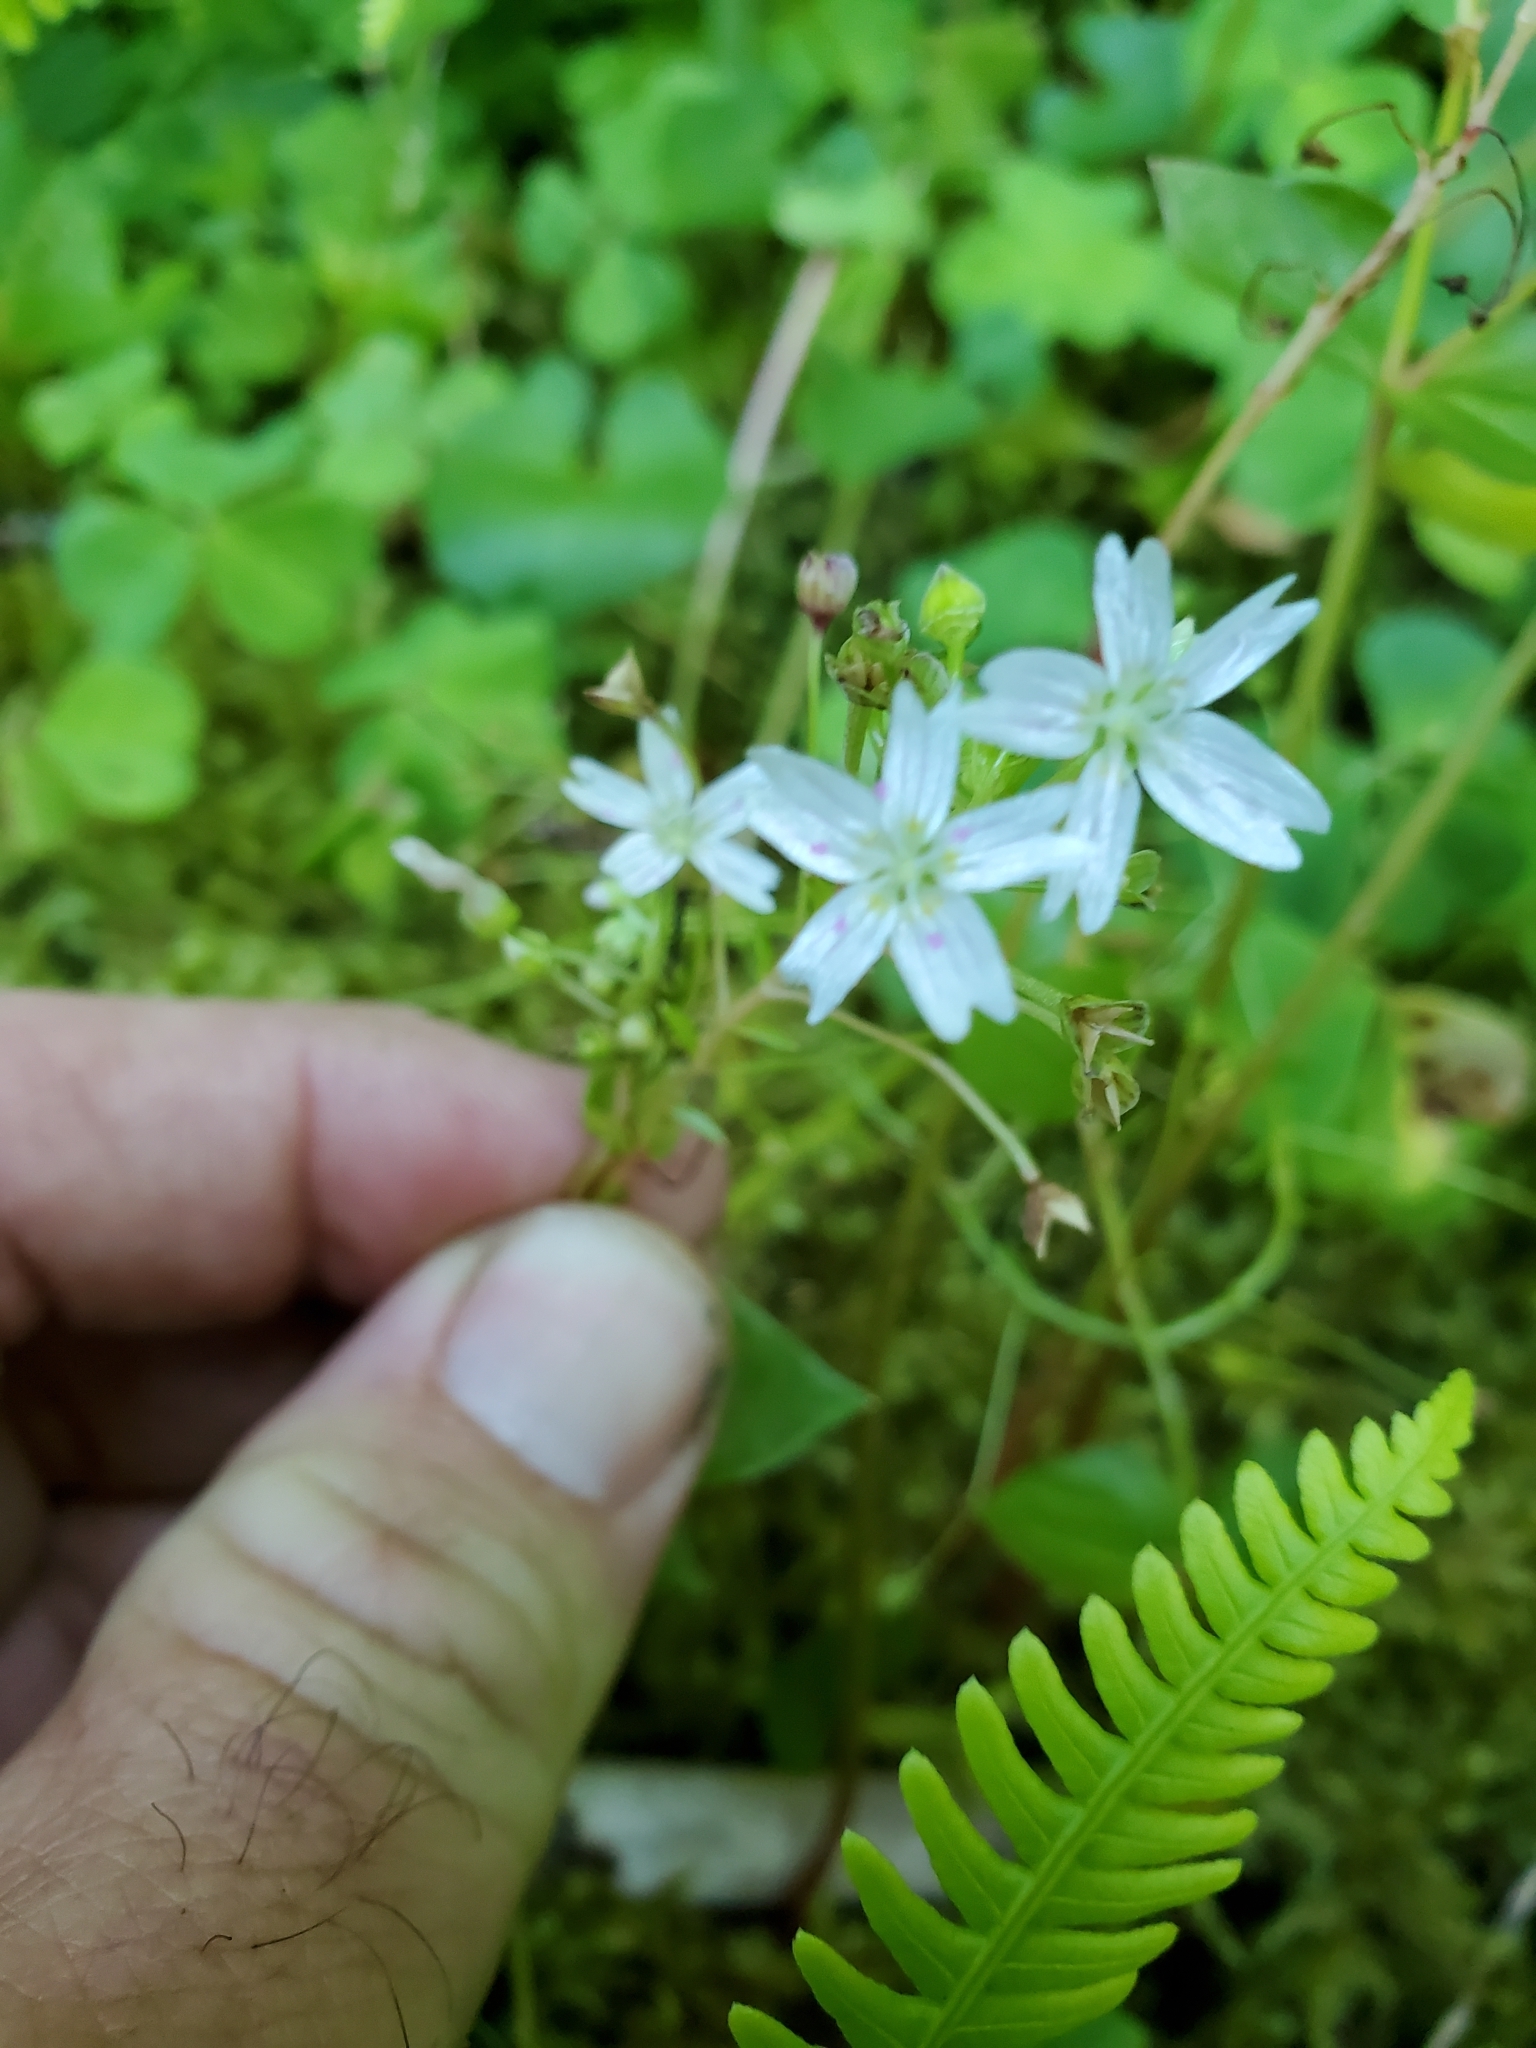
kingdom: Plantae
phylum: Tracheophyta
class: Magnoliopsida
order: Caryophyllales
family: Montiaceae
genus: Claytonia
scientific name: Claytonia sibirica
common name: Pink purslane
